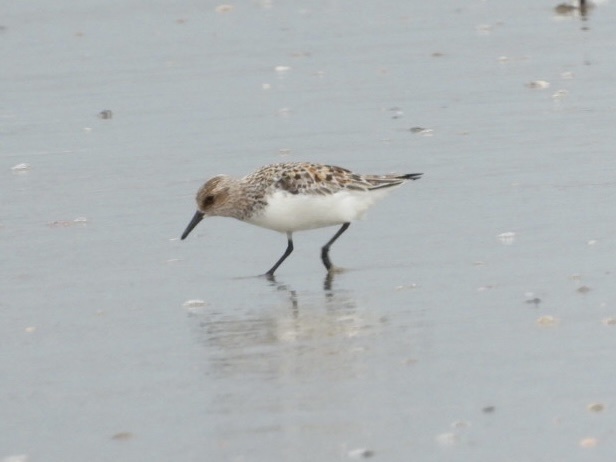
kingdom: Animalia
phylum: Chordata
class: Aves
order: Charadriiformes
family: Scolopacidae
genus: Calidris
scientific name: Calidris alba
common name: Sanderling
